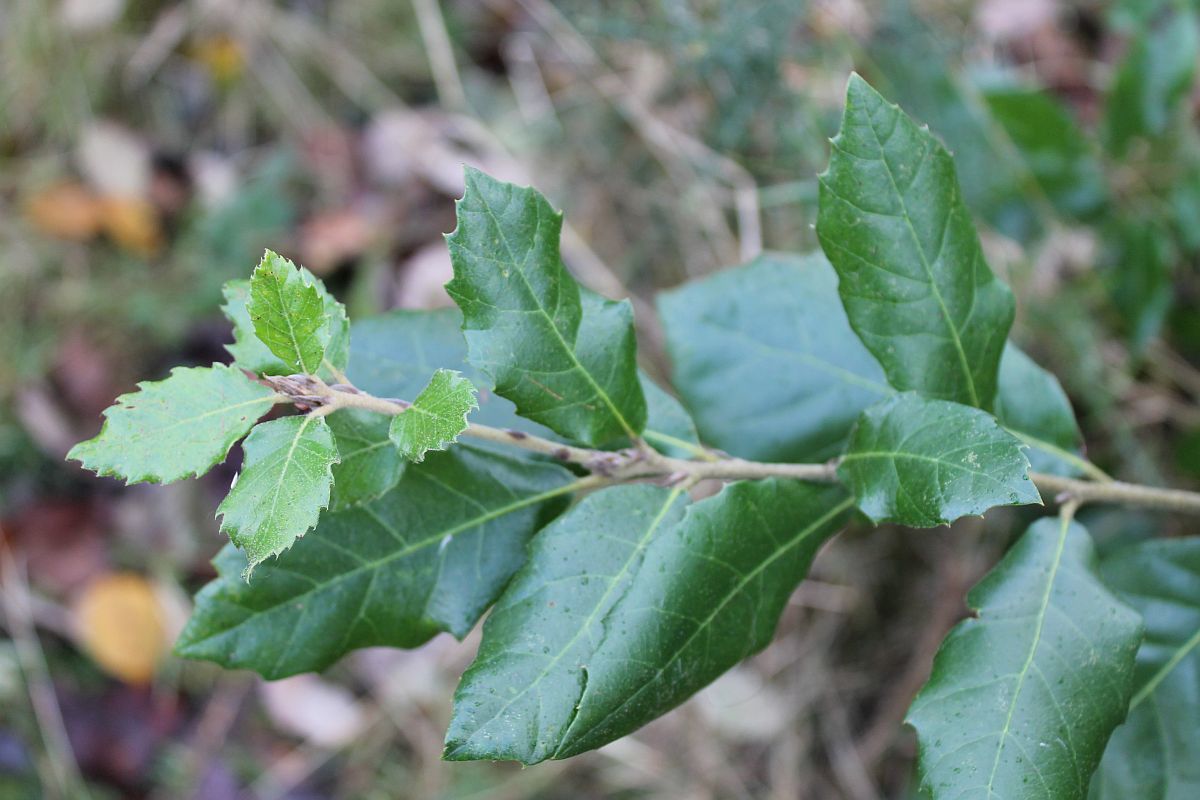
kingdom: Plantae
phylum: Tracheophyta
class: Magnoliopsida
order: Fagales
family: Fagaceae
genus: Quercus
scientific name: Quercus ilex
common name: Evergreen oak
